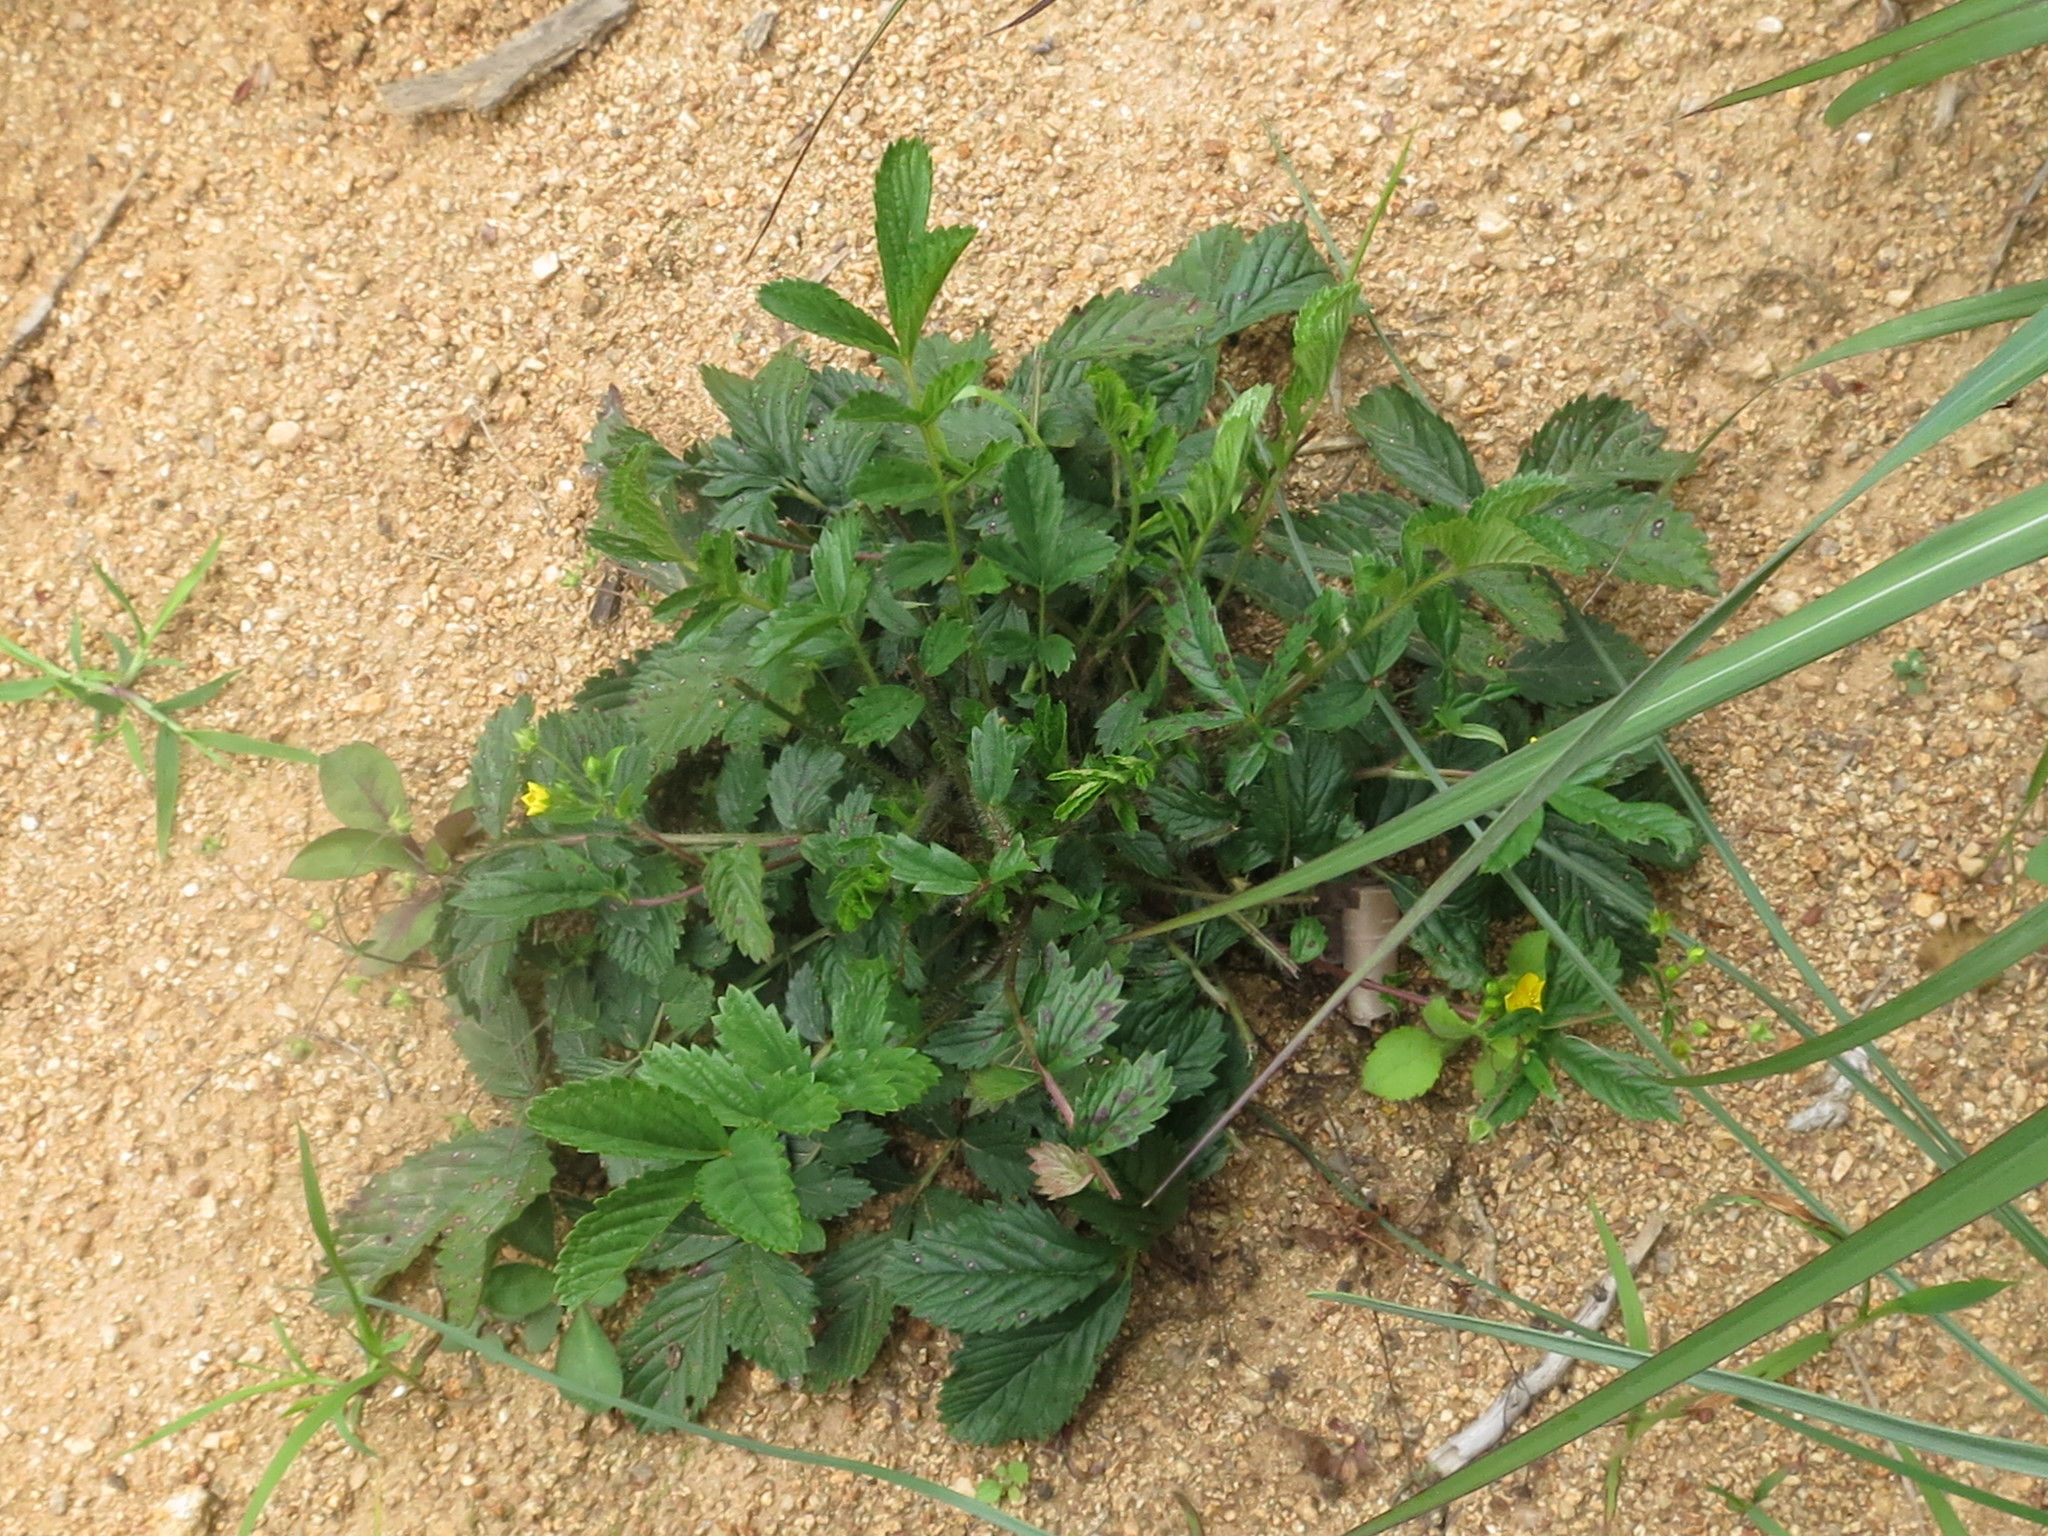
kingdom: Plantae
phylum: Tracheophyta
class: Magnoliopsida
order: Rosales
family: Rosaceae
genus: Potentilla
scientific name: Potentilla fragarioides
